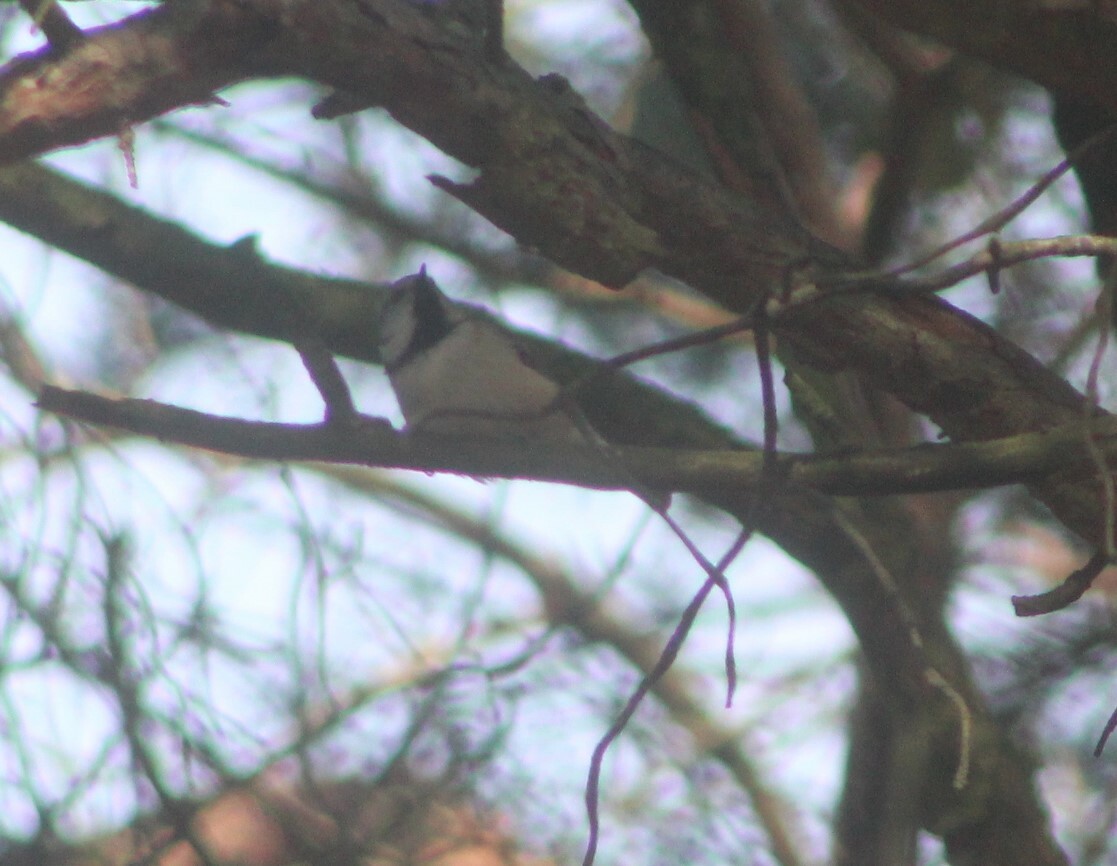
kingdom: Animalia
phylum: Chordata
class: Aves
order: Passeriformes
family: Paridae
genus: Lophophanes
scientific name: Lophophanes cristatus
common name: European crested tit
